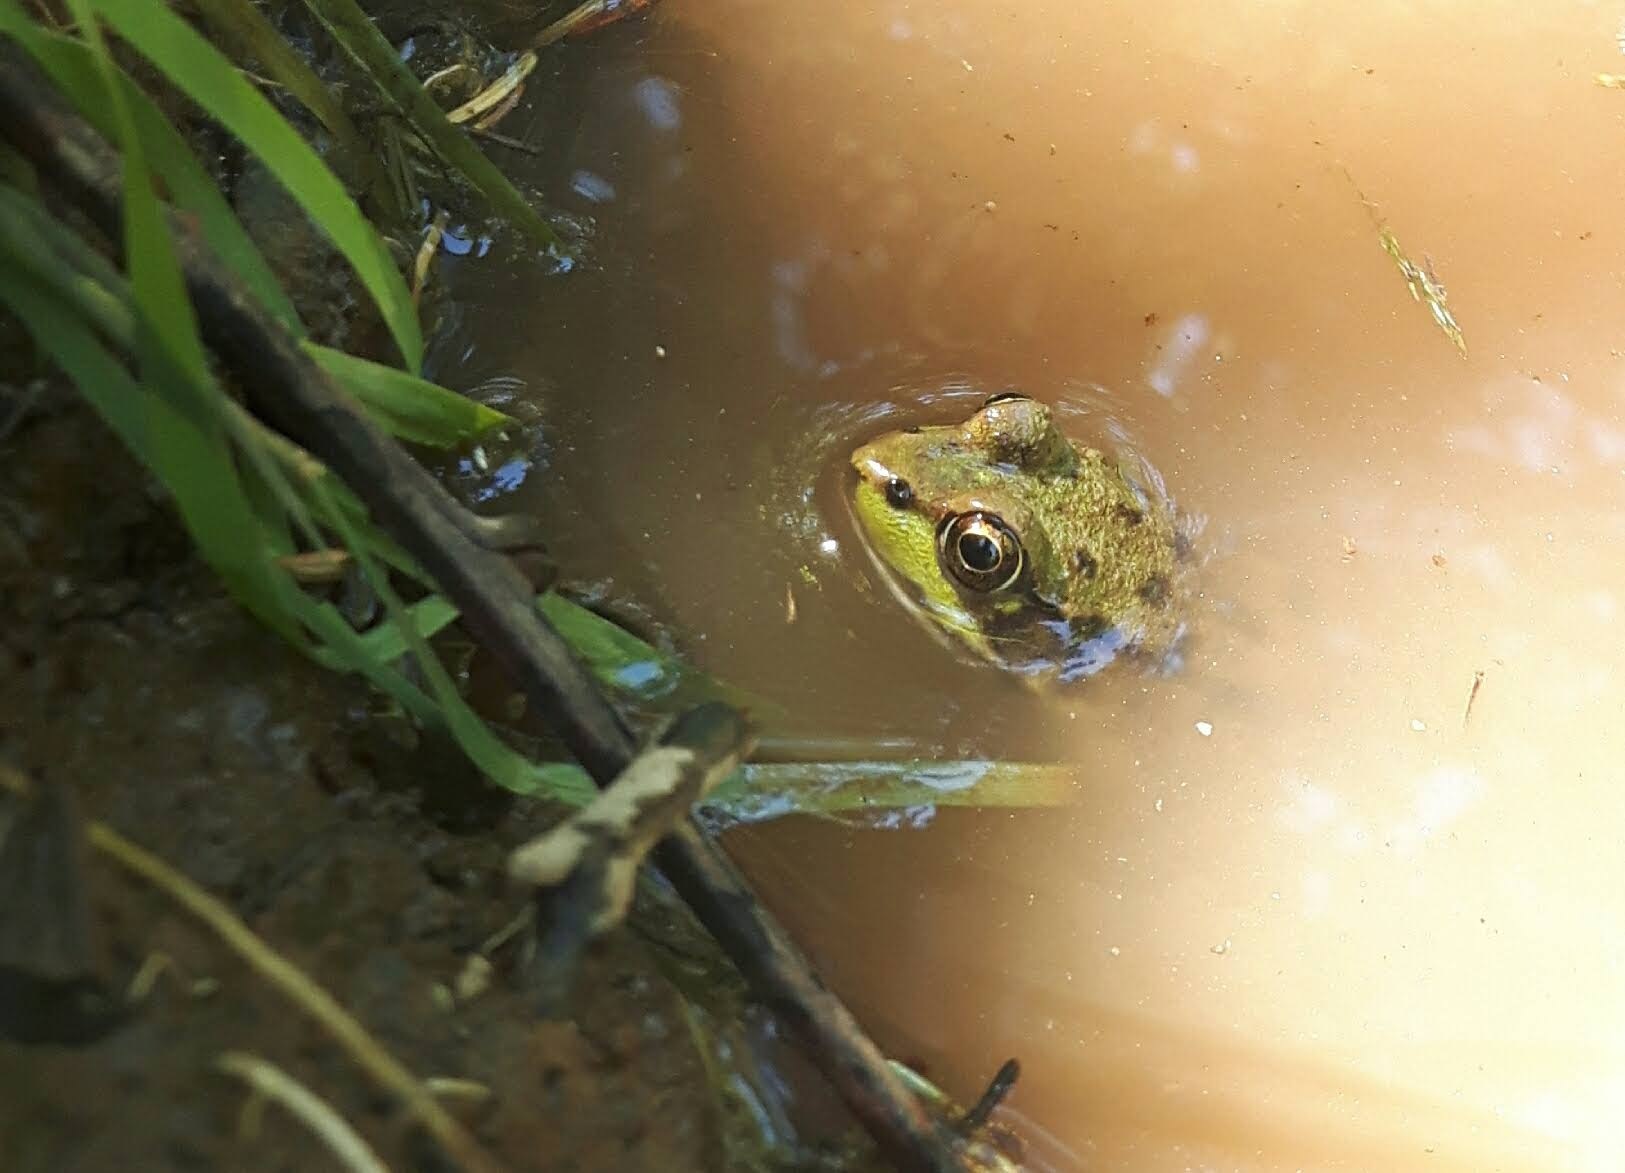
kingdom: Animalia
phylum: Chordata
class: Amphibia
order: Anura
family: Ranidae
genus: Lithobates
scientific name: Lithobates clamitans
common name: Green frog
